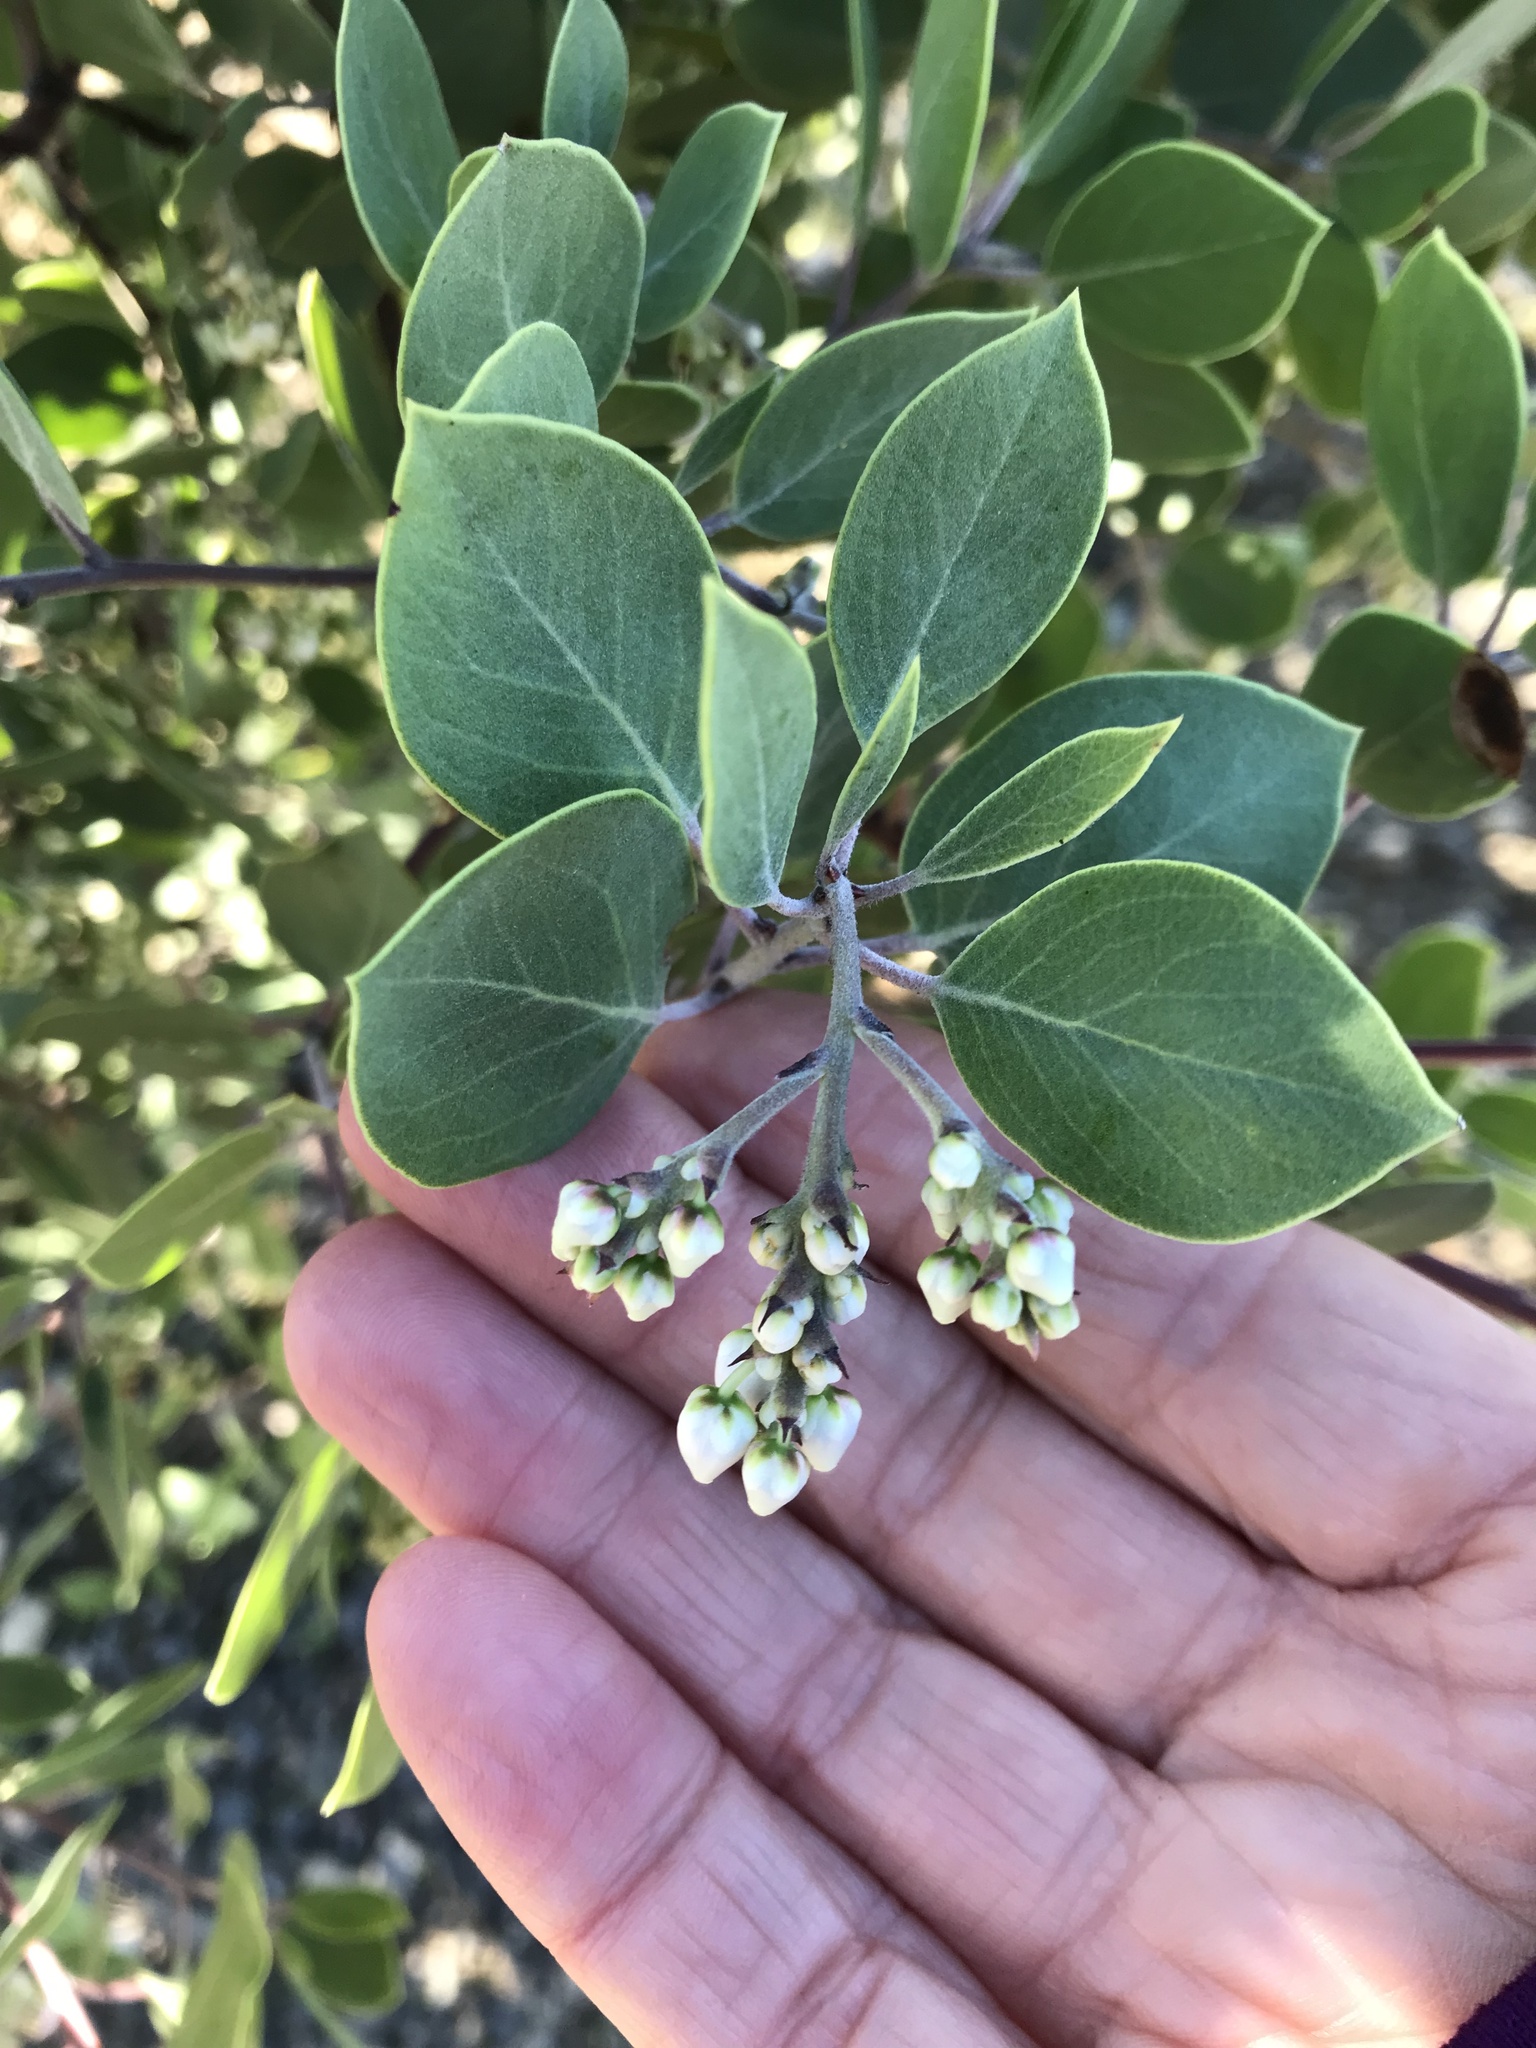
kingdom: Plantae
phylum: Tracheophyta
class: Magnoliopsida
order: Ericales
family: Ericaceae
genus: Arctostaphylos
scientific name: Arctostaphylos manzanita
